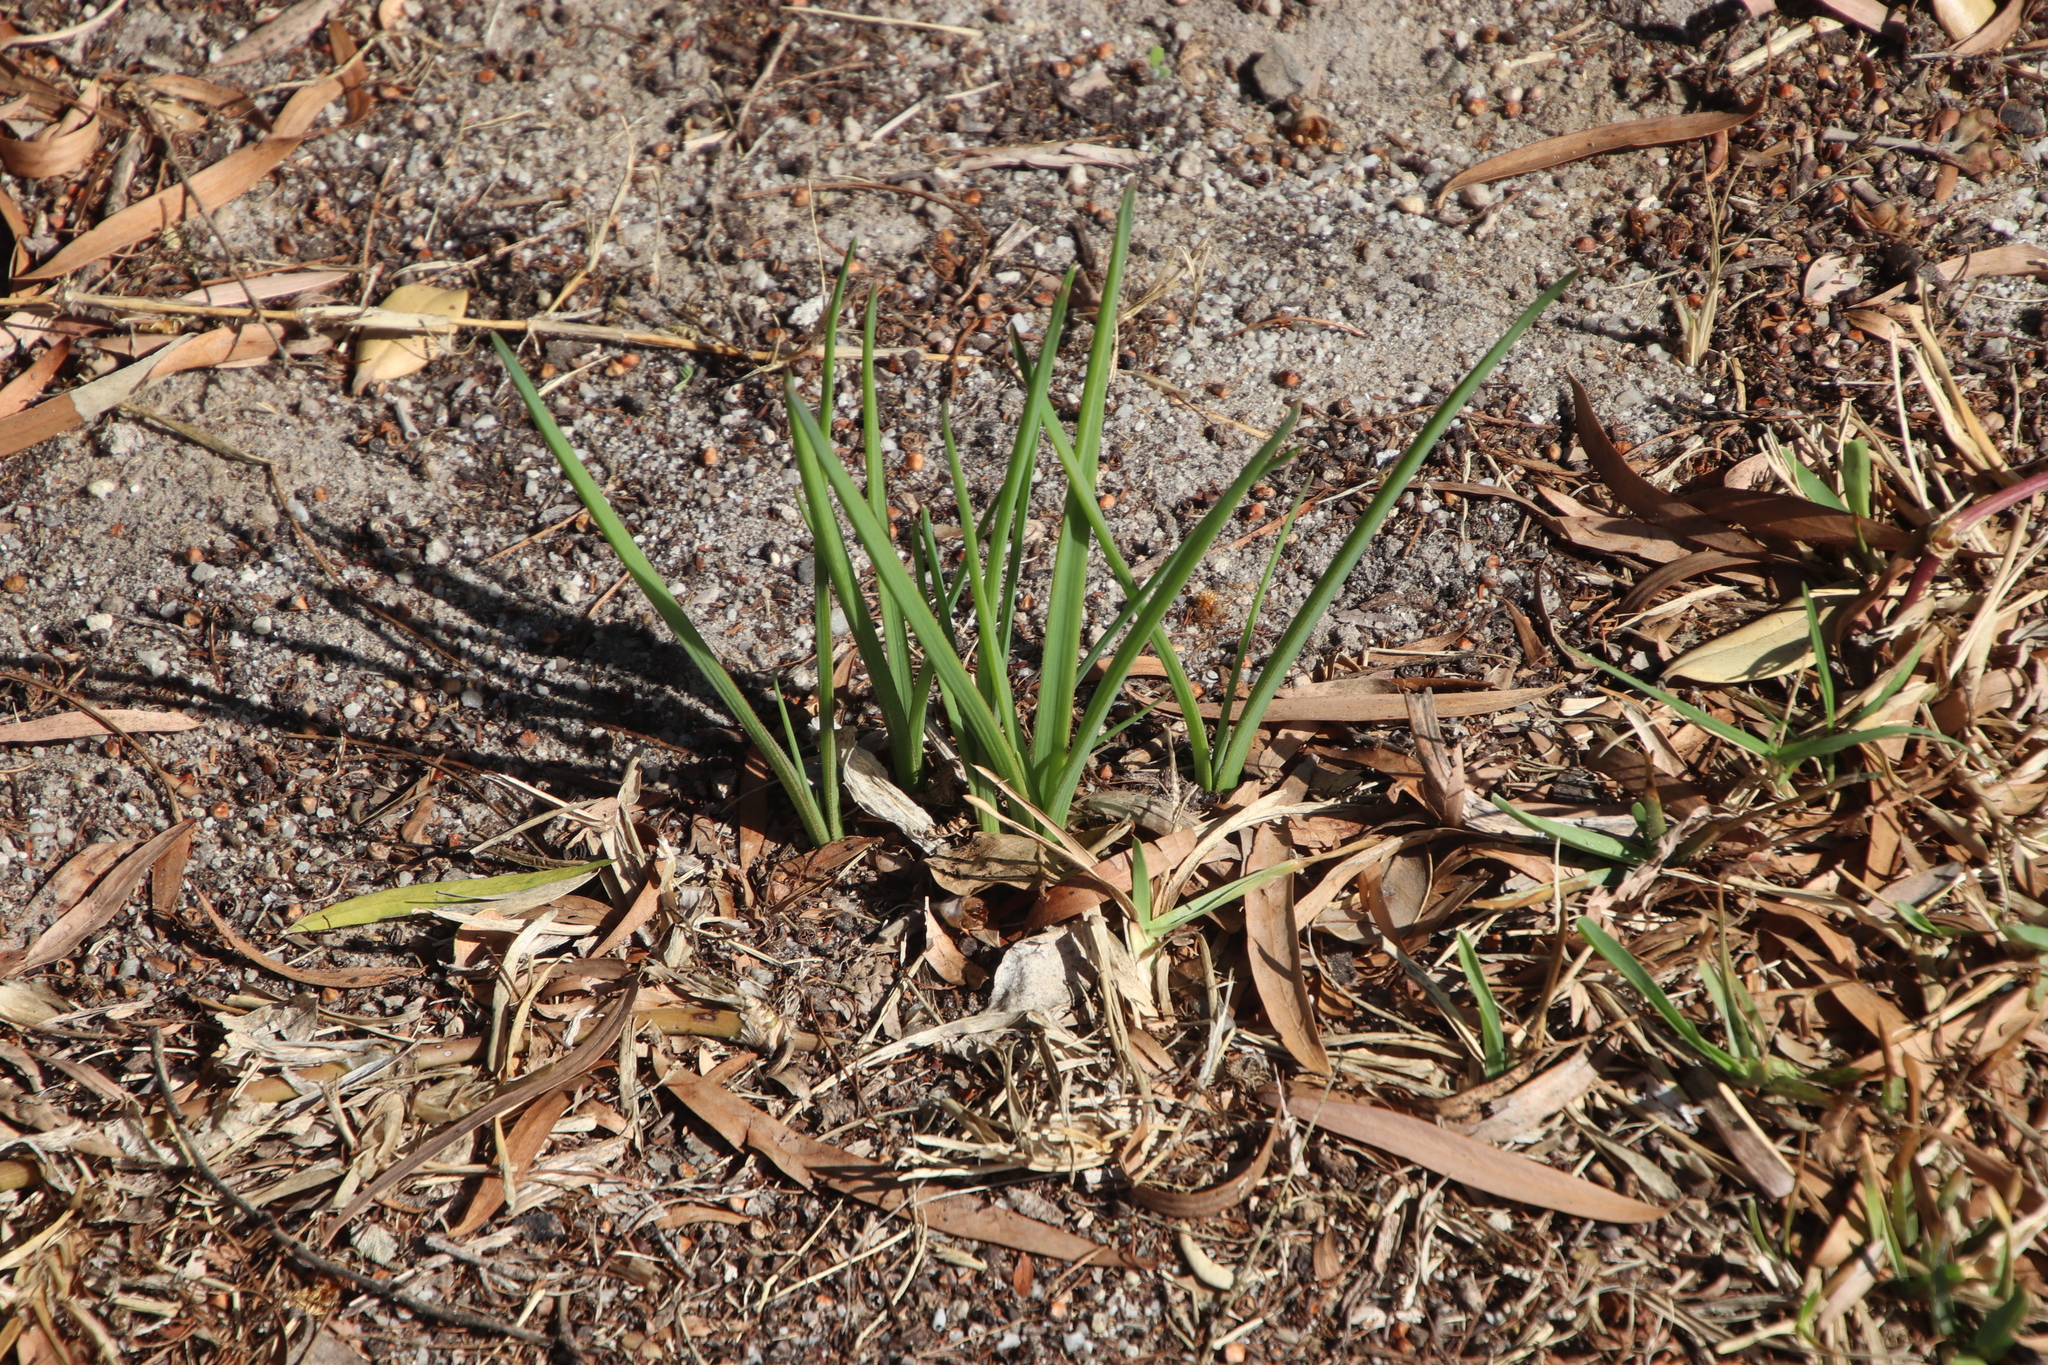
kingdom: Plantae
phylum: Tracheophyta
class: Liliopsida
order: Asparagales
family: Asphodelaceae
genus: Trachyandra
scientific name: Trachyandra ciliata
